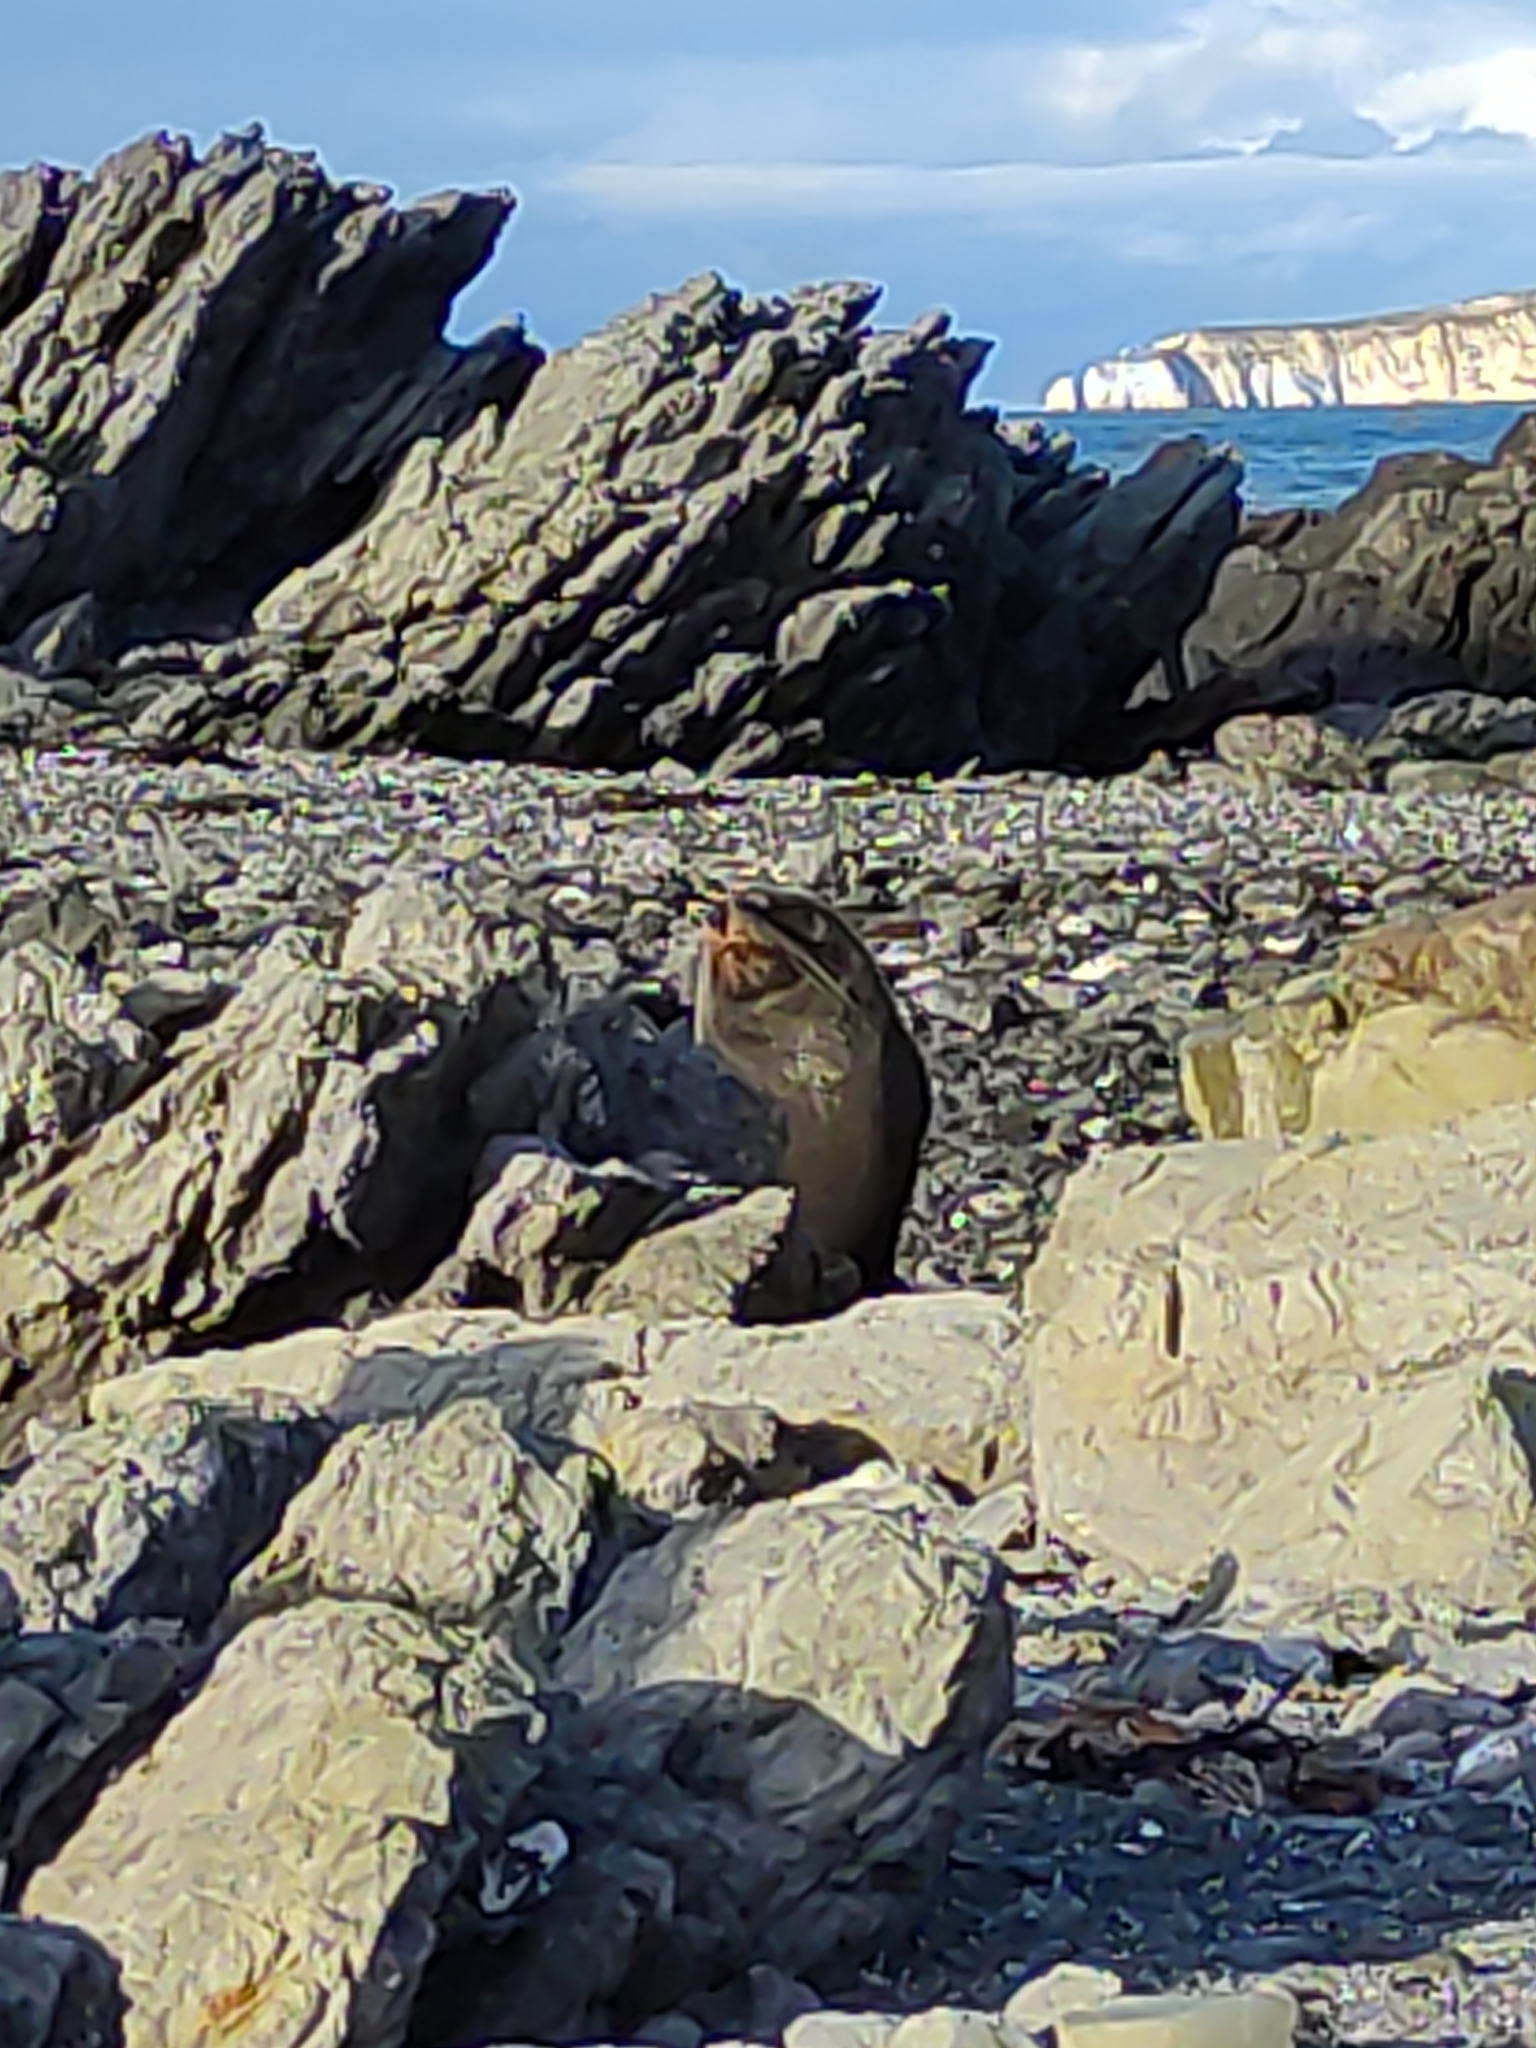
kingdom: Animalia
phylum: Chordata
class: Mammalia
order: Carnivora
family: Otariidae
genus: Arctocephalus
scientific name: Arctocephalus forsteri
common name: New zealand fur seal
